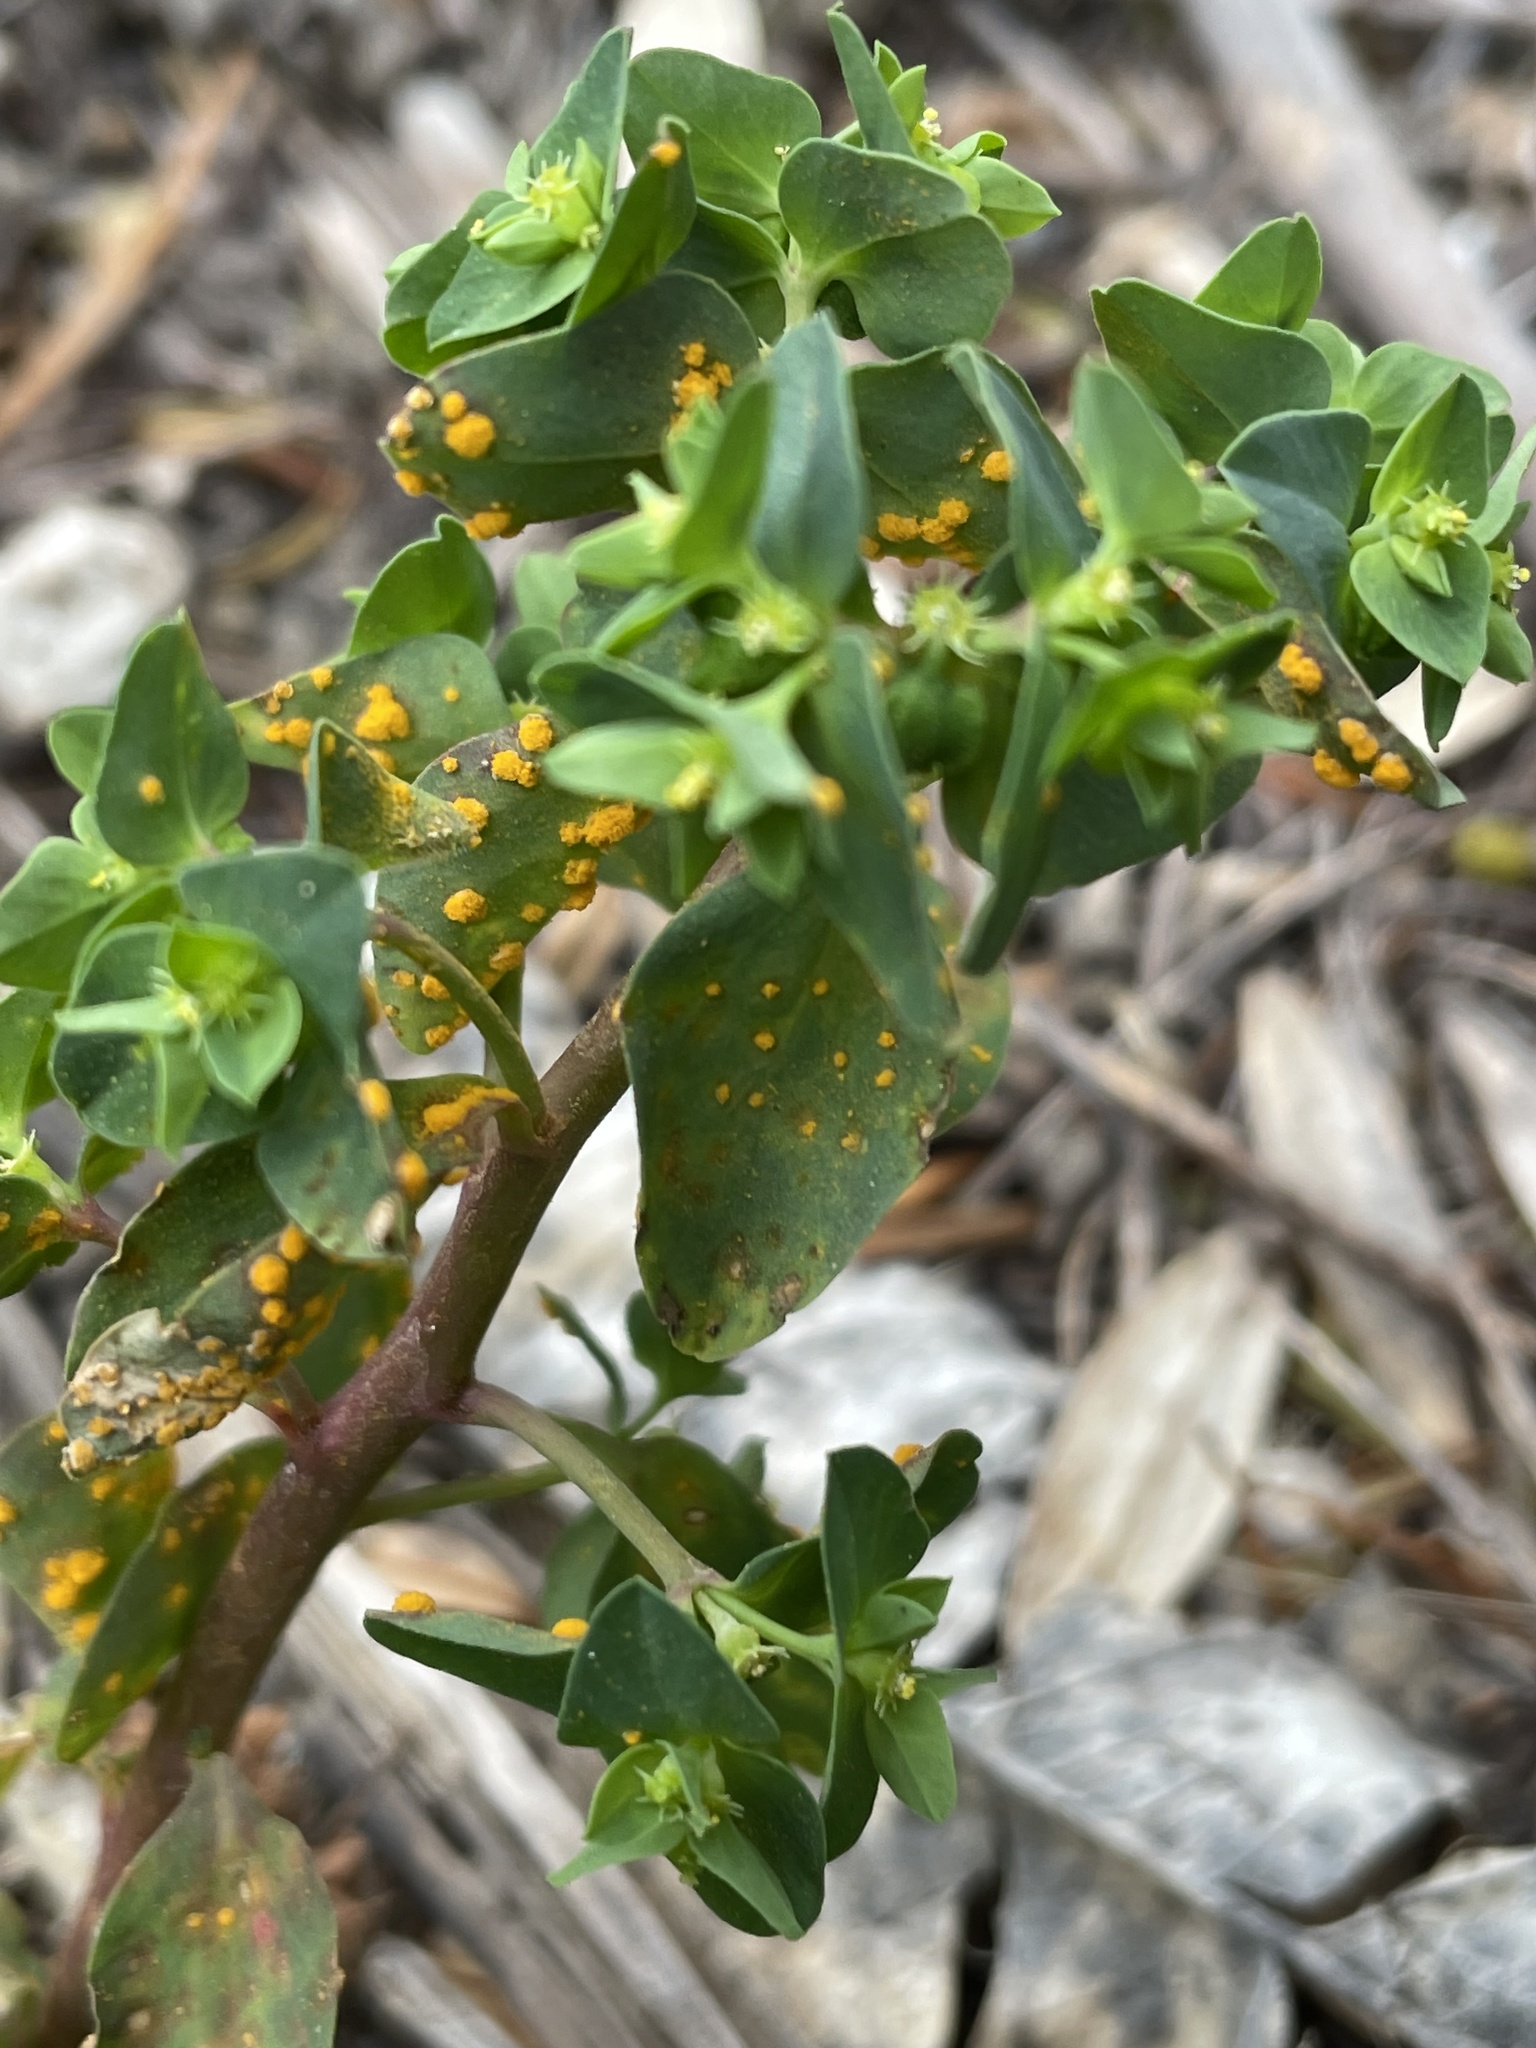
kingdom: Fungi
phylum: Basidiomycota
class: Pucciniomycetes
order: Pucciniales
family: Melampsoraceae
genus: Melampsora
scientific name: Melampsora euphorbiae
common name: Spurge rust
